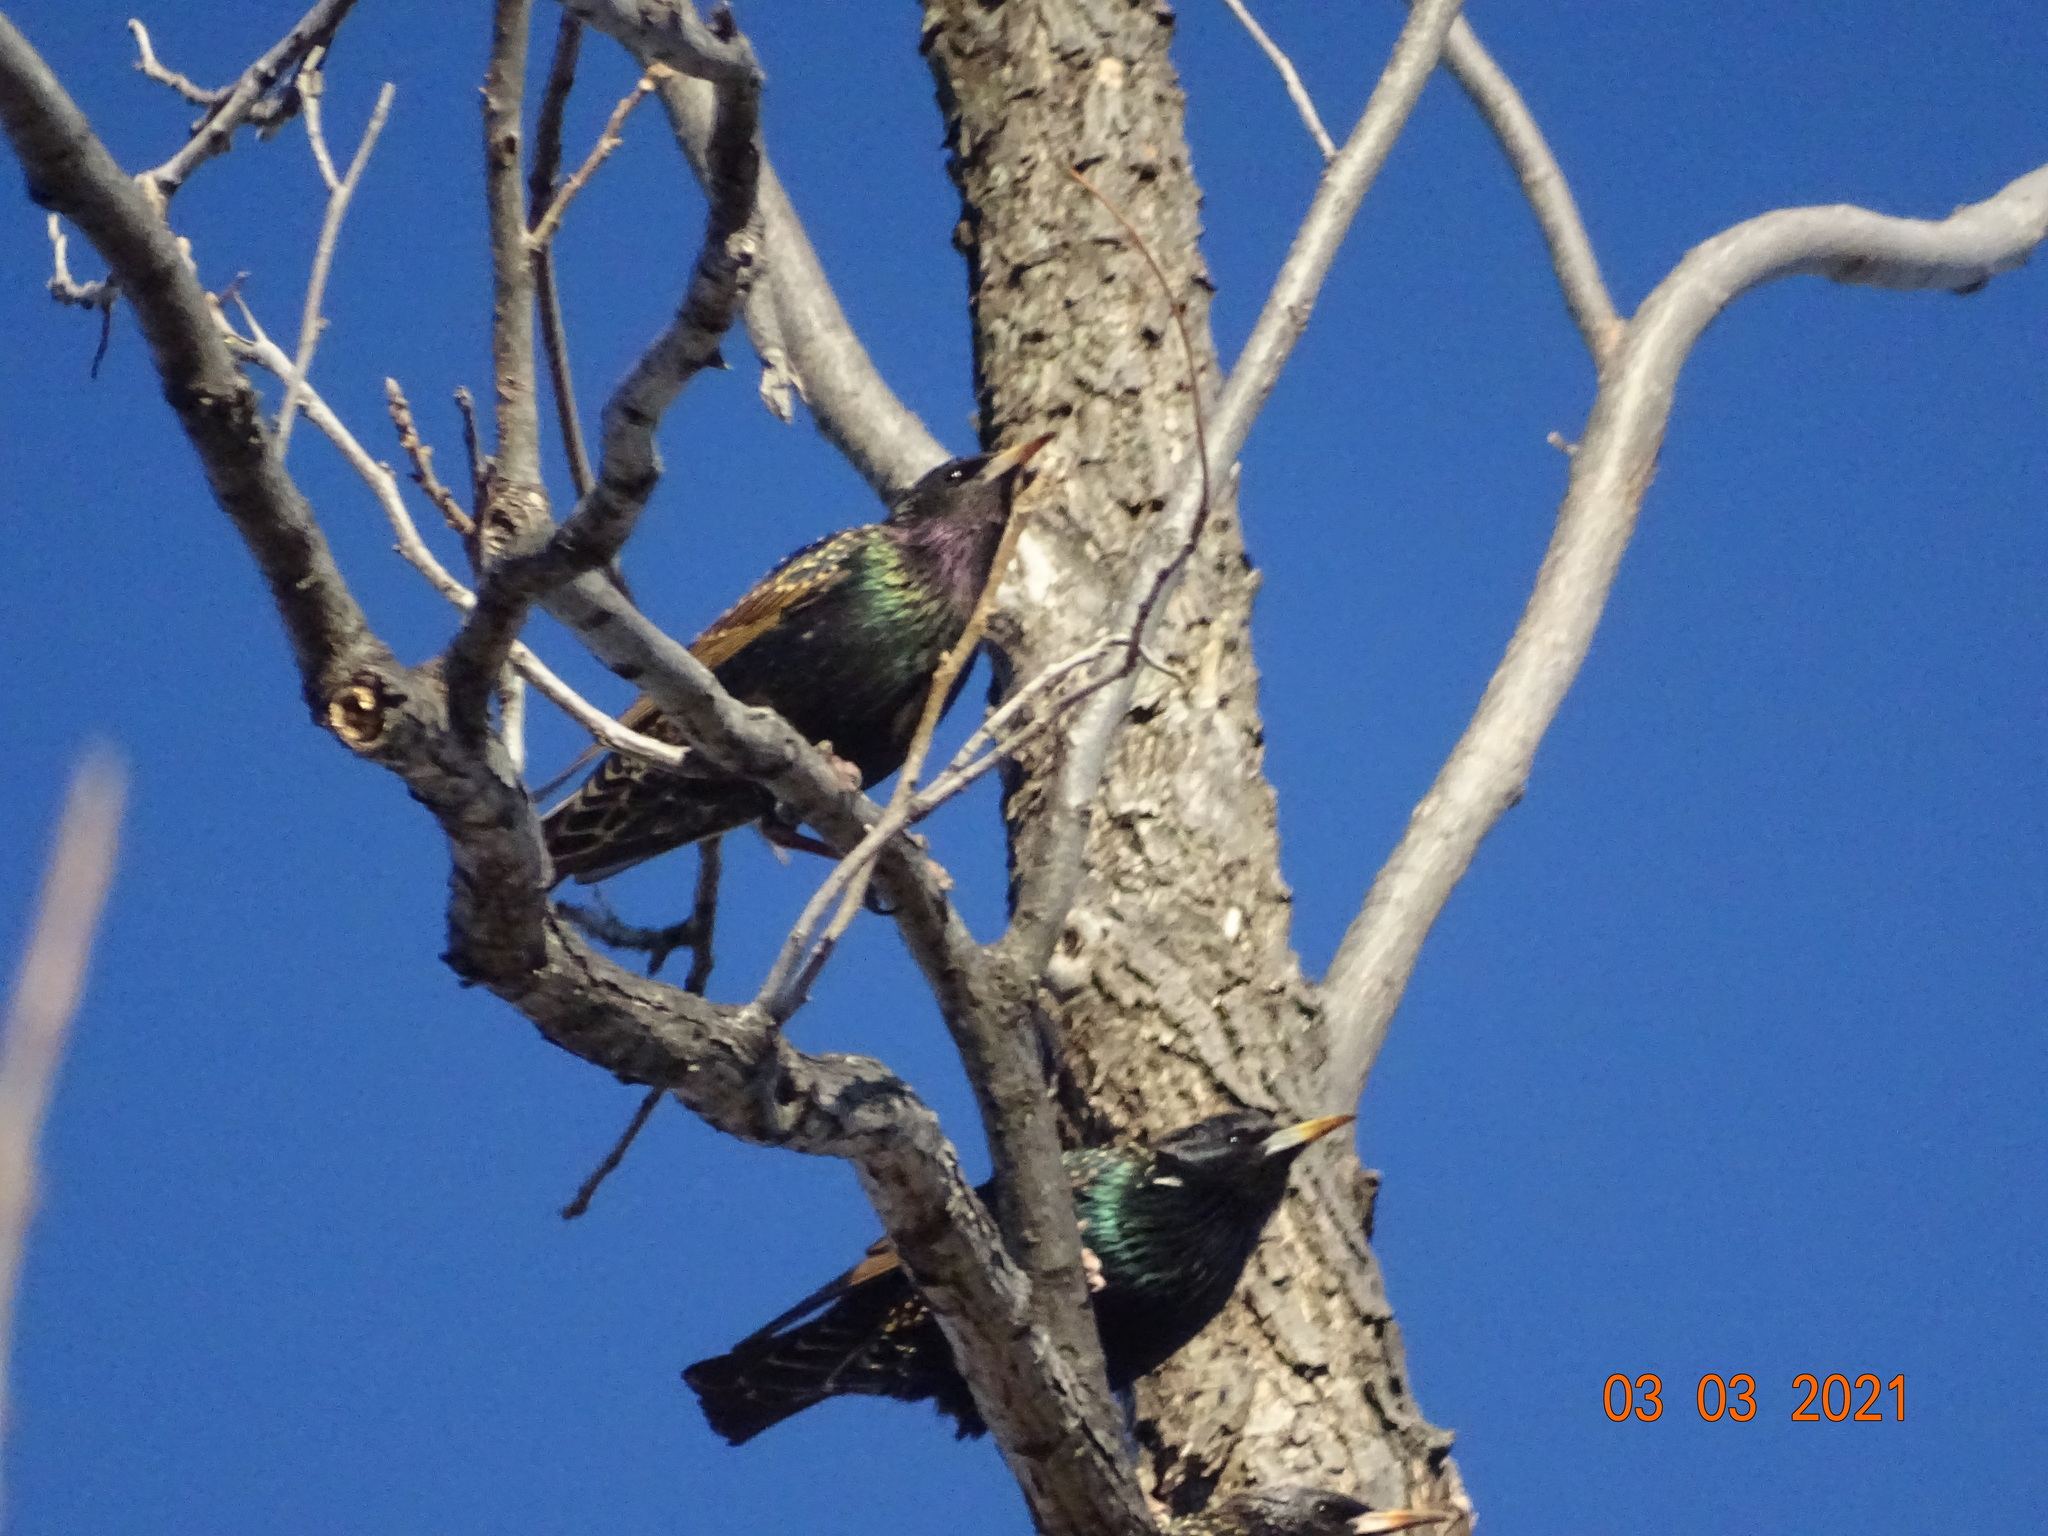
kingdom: Animalia
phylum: Chordata
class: Aves
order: Passeriformes
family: Sturnidae
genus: Sturnus
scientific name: Sturnus vulgaris
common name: Common starling
